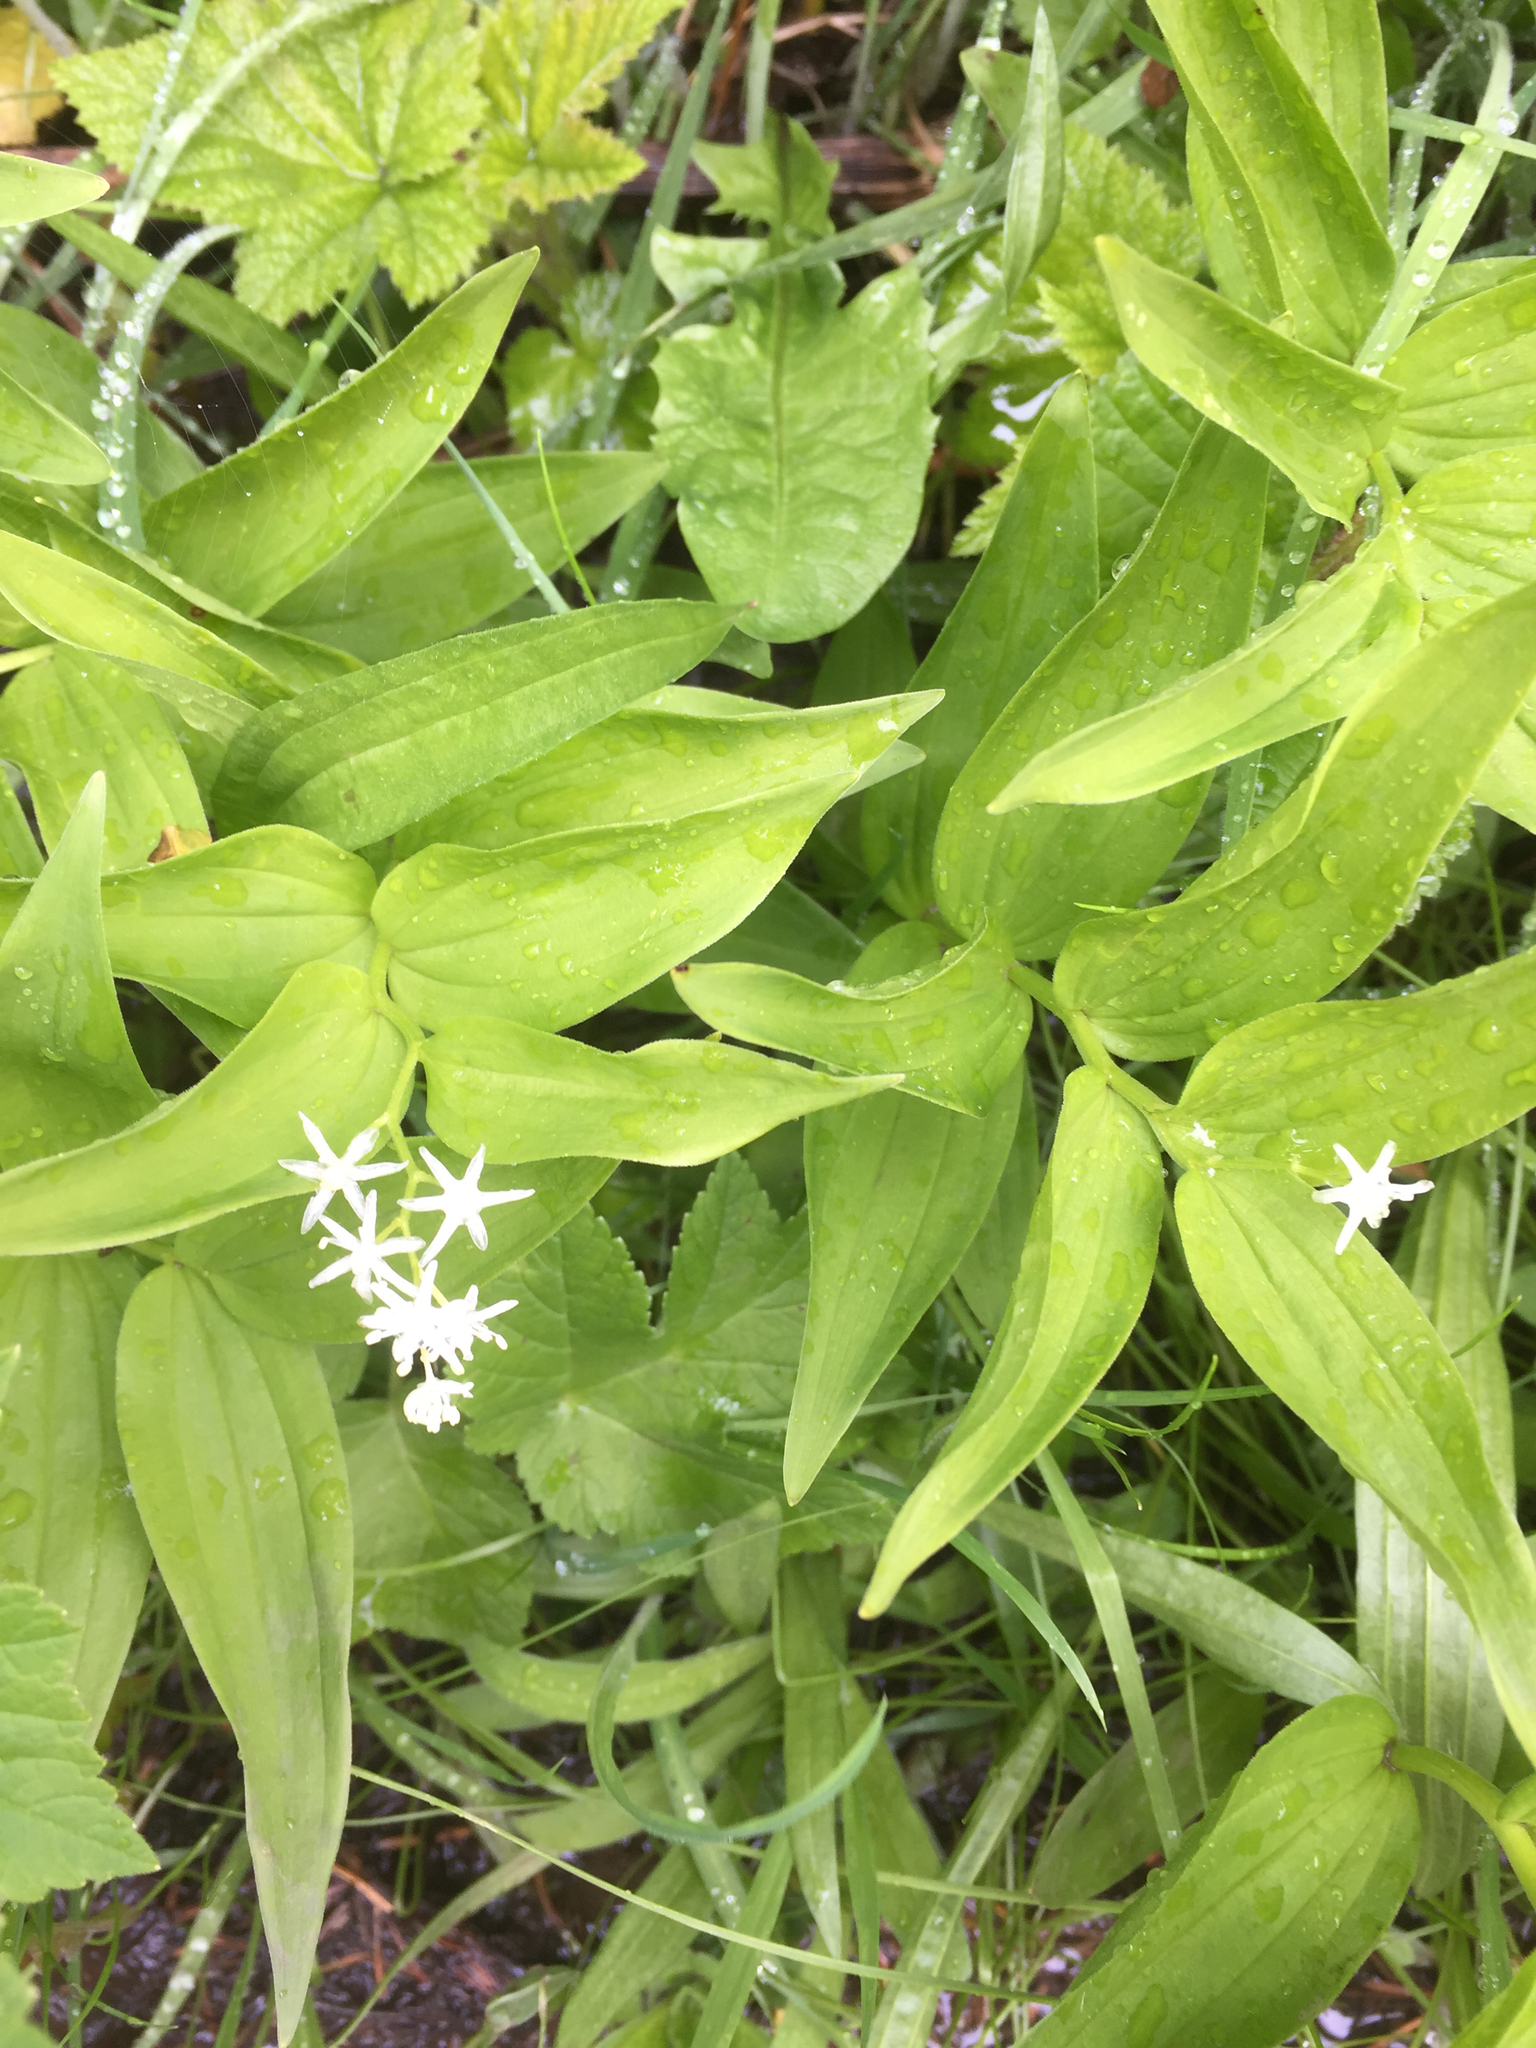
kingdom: Plantae
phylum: Tracheophyta
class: Liliopsida
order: Asparagales
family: Asparagaceae
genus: Maianthemum
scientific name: Maianthemum stellatum
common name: Little false solomon's seal
